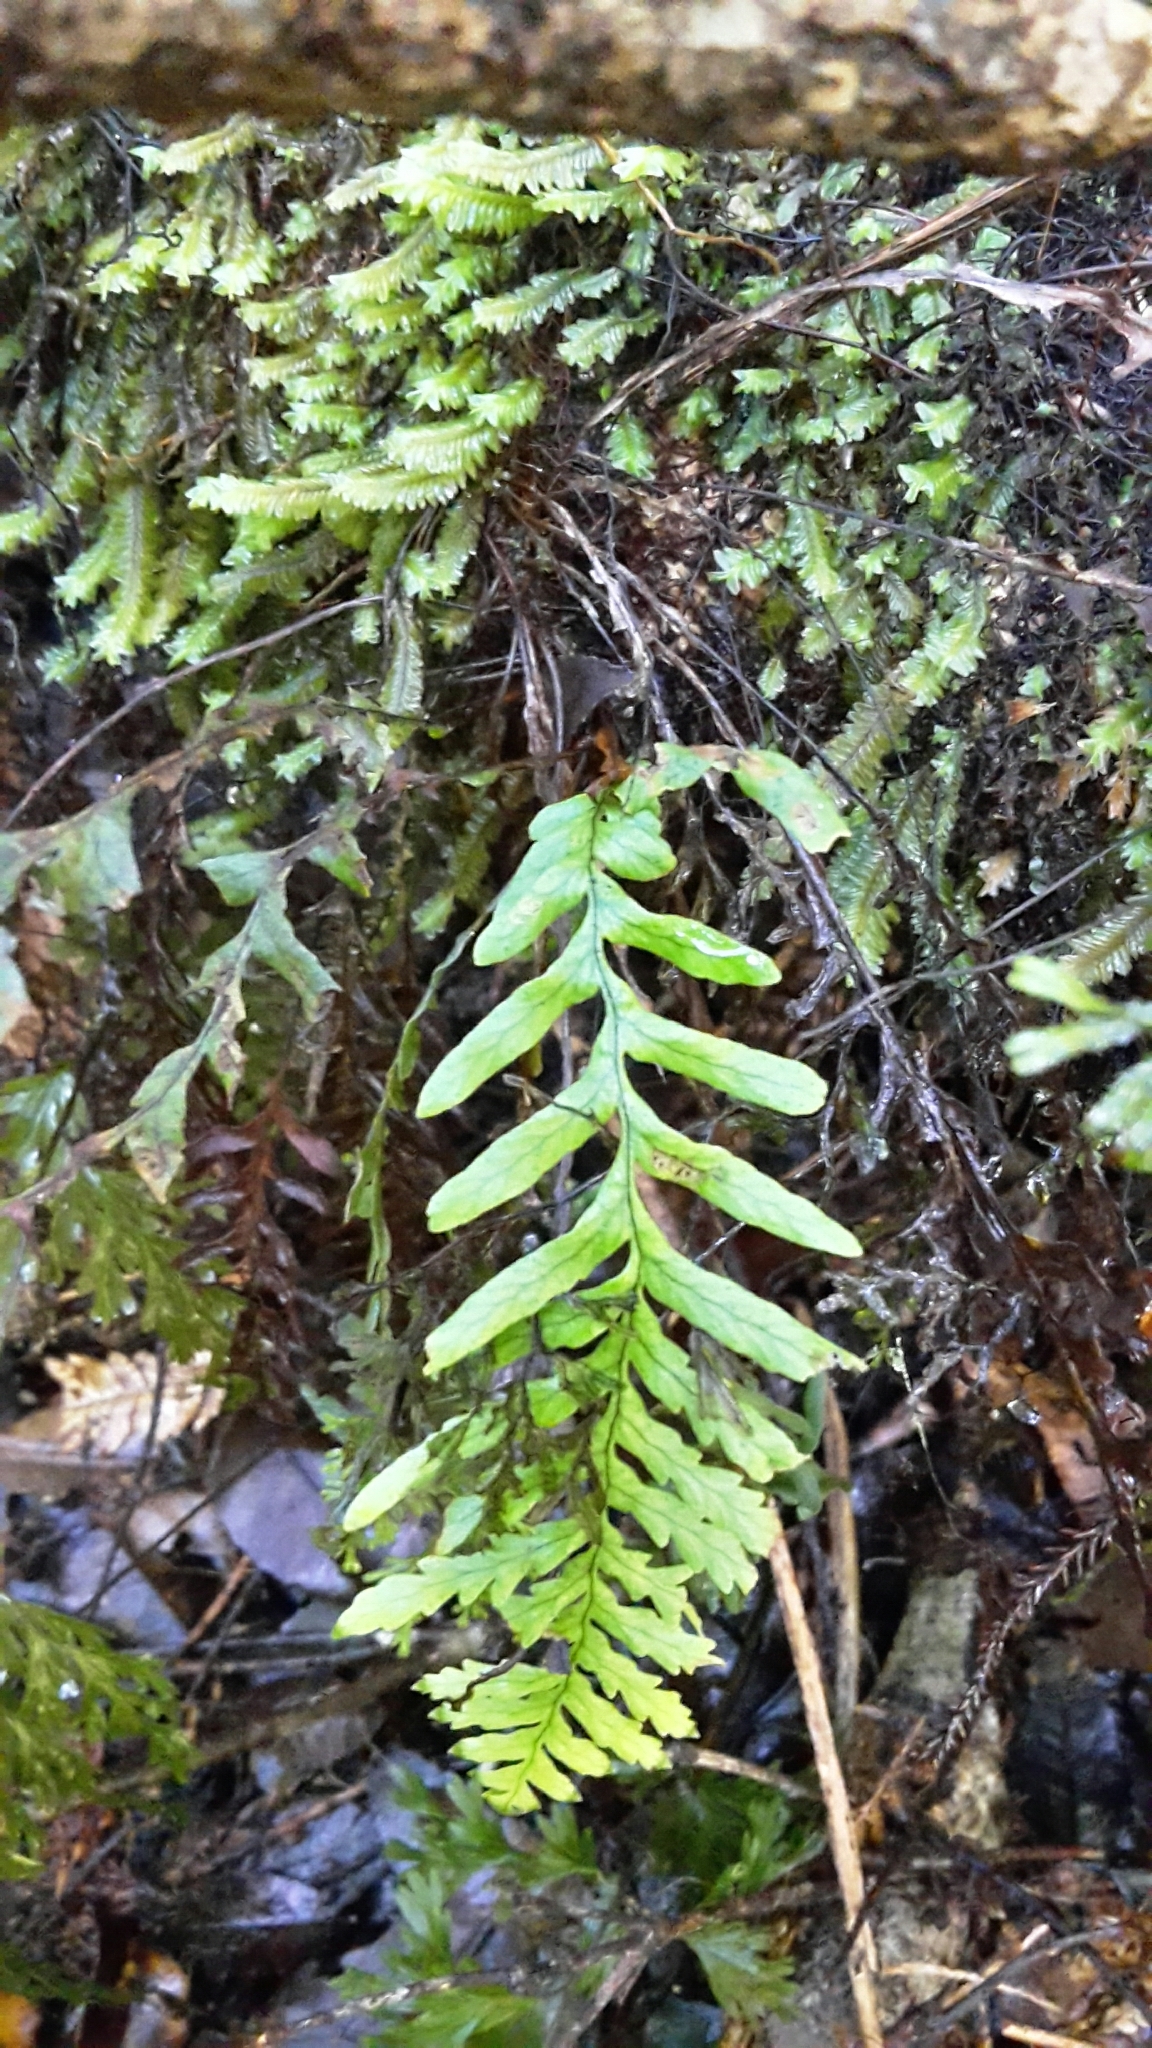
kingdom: Plantae
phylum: Tracheophyta
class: Polypodiopsida
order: Polypodiales
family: Polypodiaceae
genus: Notogrammitis
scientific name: Notogrammitis heterophylla
